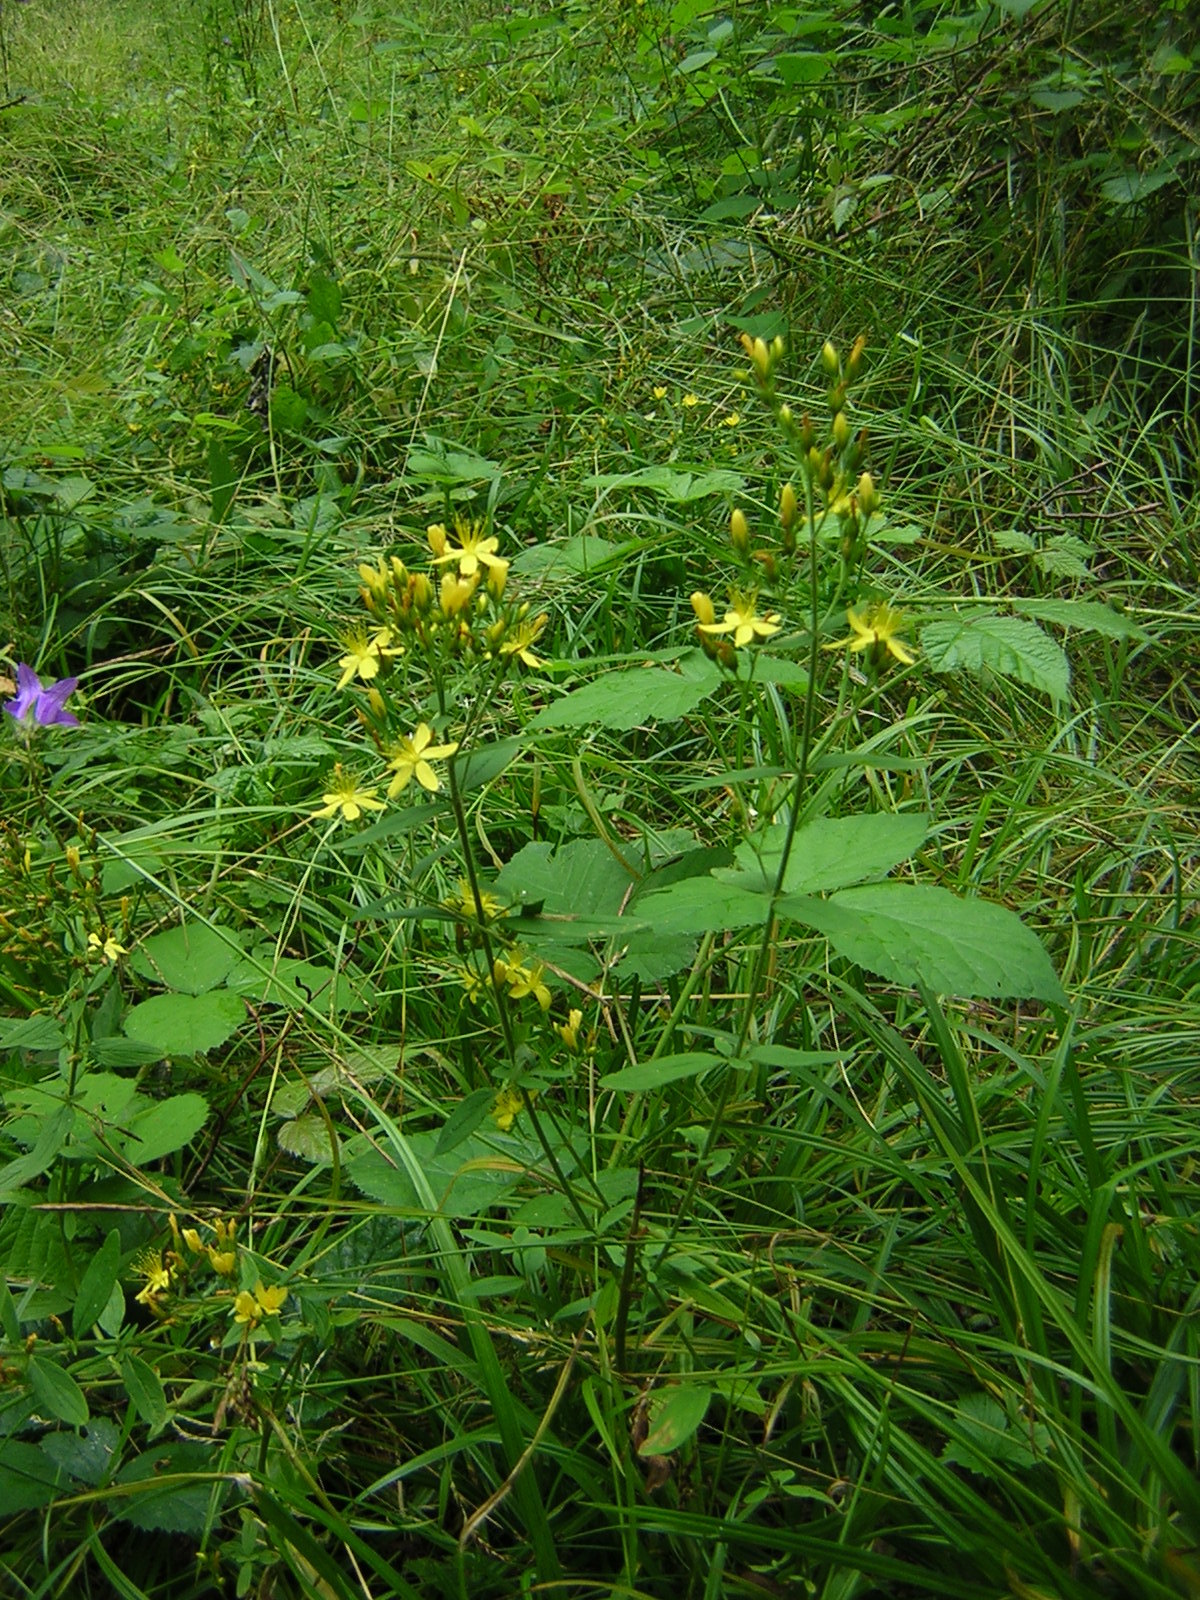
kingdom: Plantae
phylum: Tracheophyta
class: Magnoliopsida
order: Malpighiales
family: Hypericaceae
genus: Hypericum
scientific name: Hypericum hirsutum
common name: Hairy st. john's-wort
